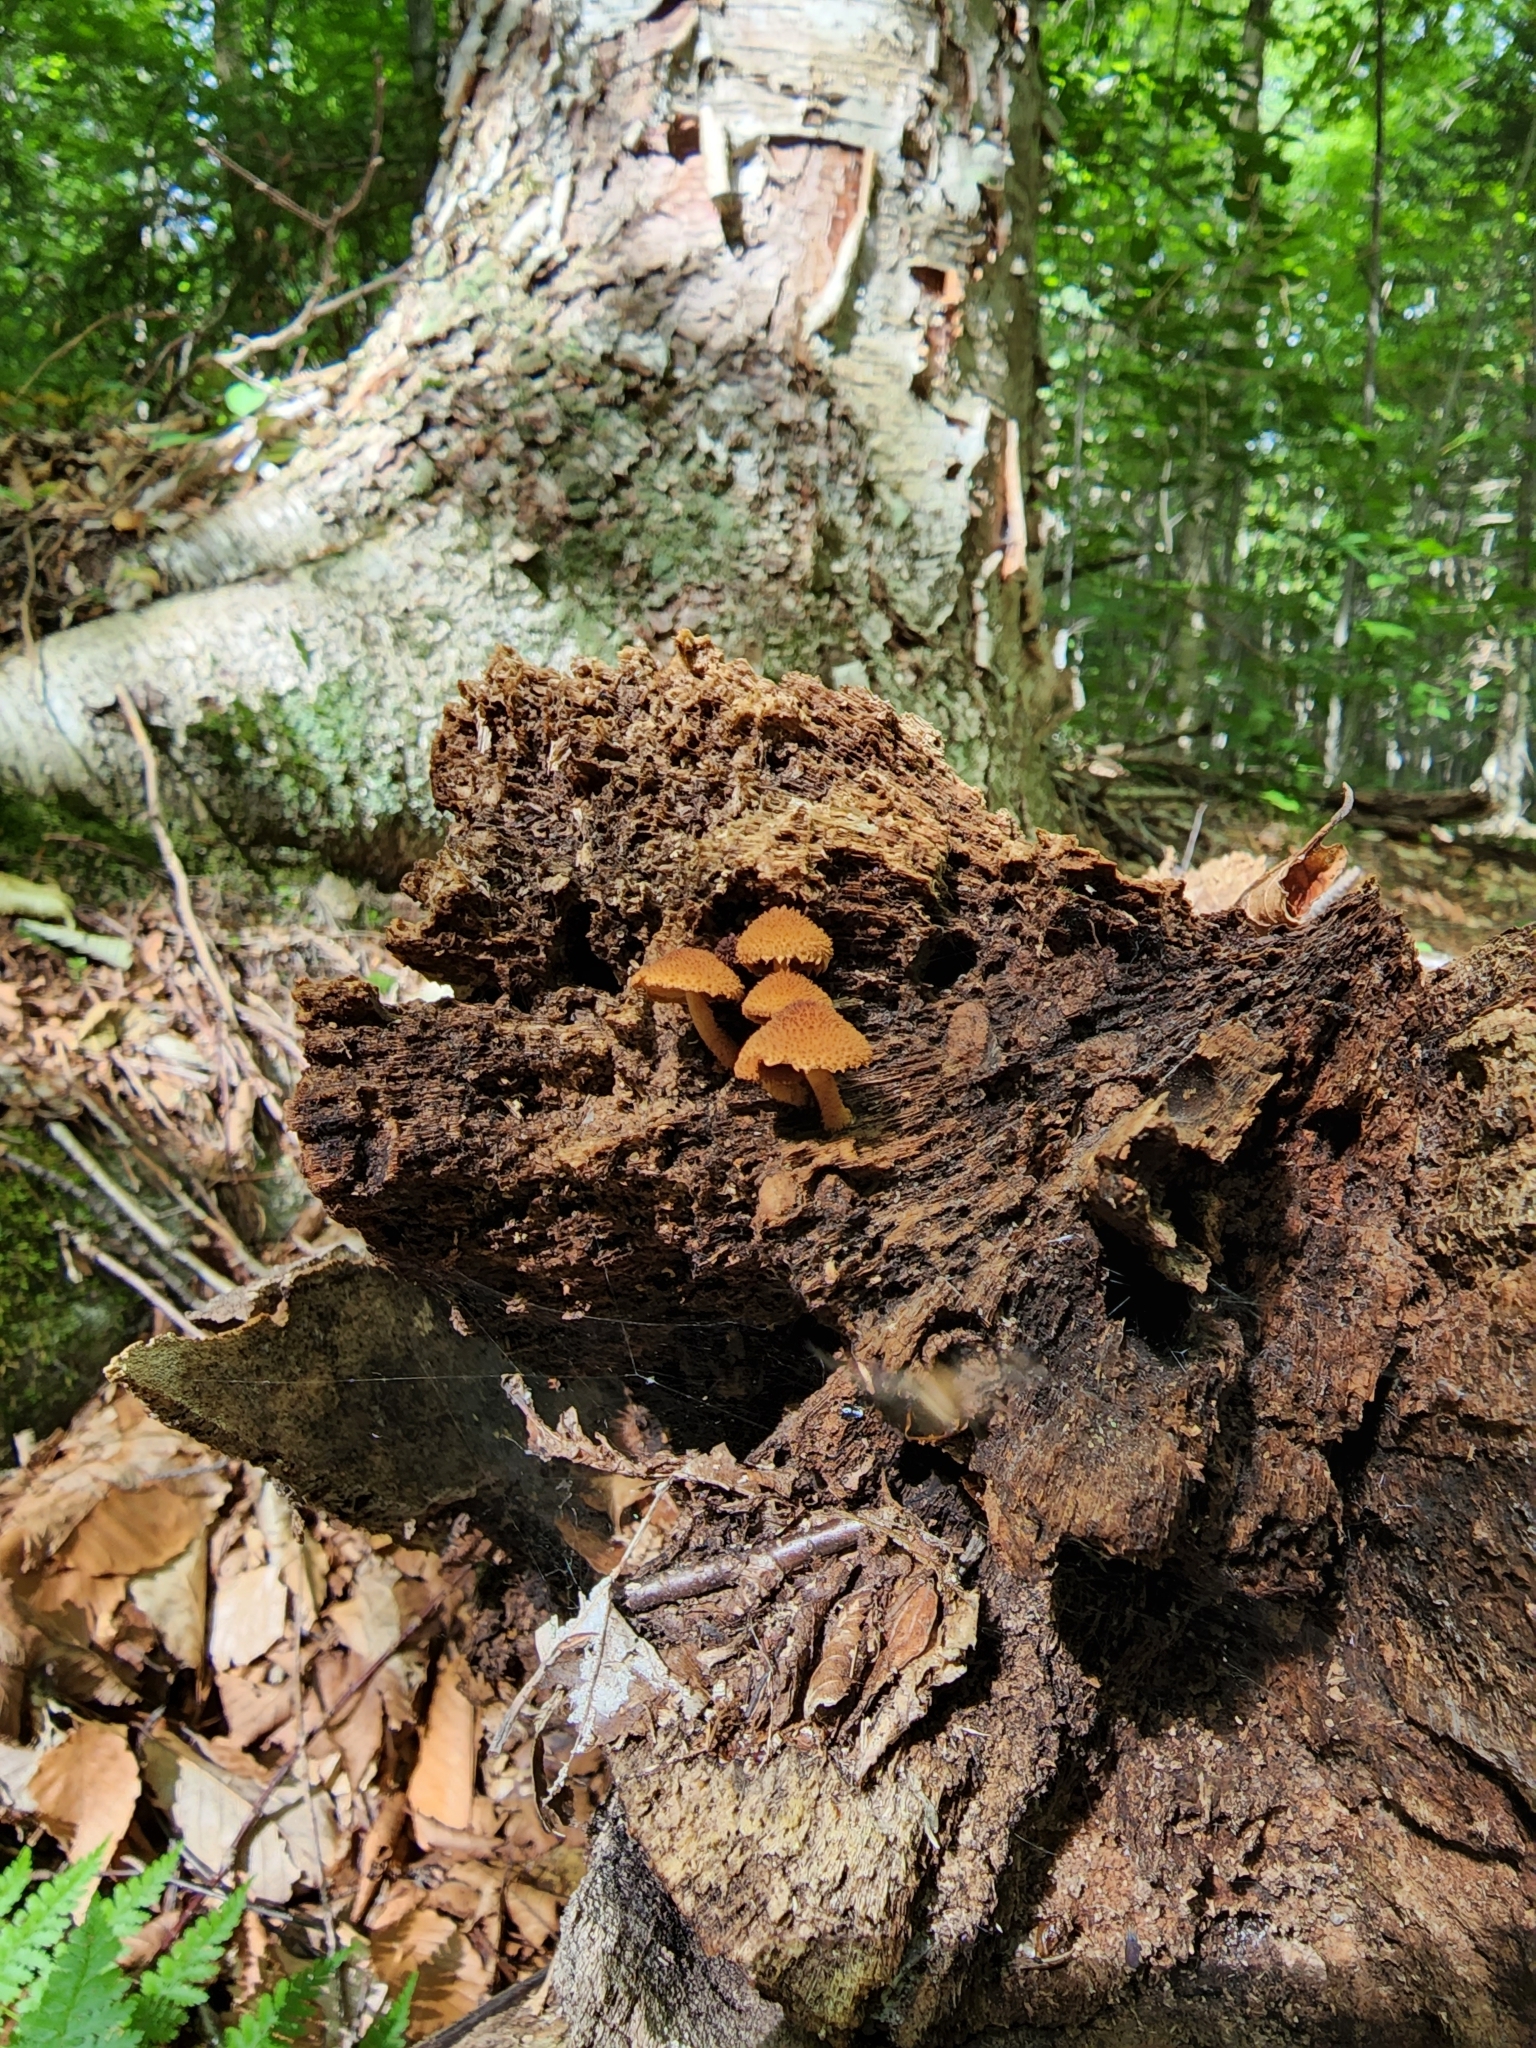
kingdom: Fungi
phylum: Basidiomycota
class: Agaricomycetes
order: Agaricales
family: Agaricaceae
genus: Leucopholiota
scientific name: Leucopholiota decorosa
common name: Decorated pholiota
